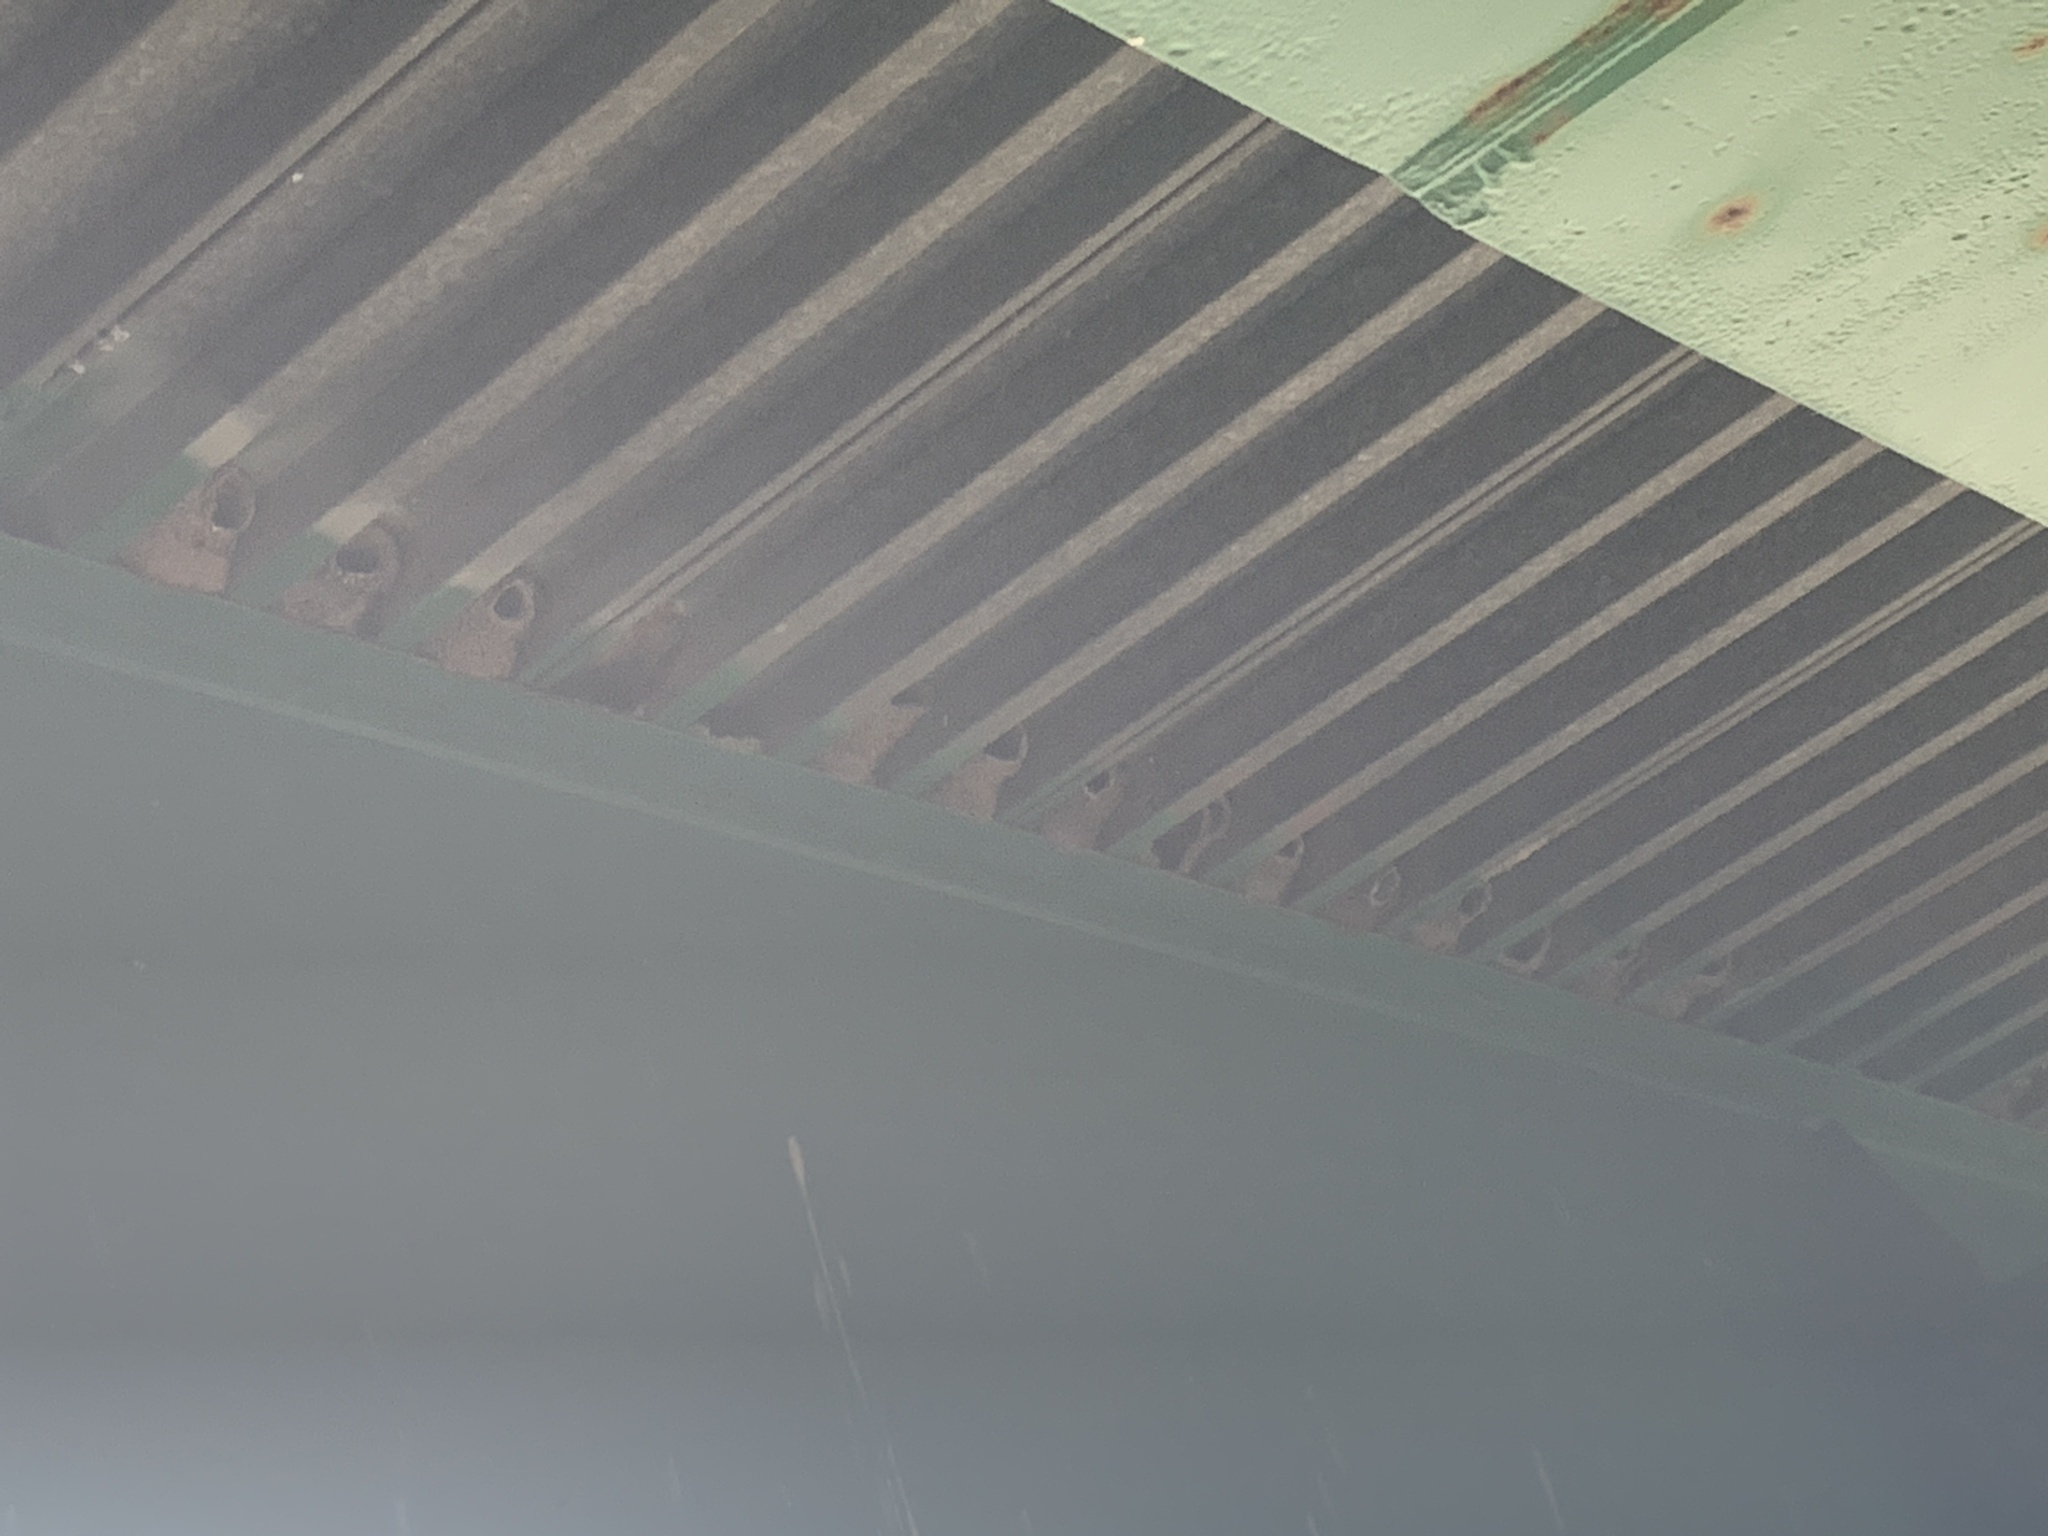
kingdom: Animalia
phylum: Chordata
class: Aves
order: Passeriformes
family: Hirundinidae
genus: Petrochelidon
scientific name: Petrochelidon pyrrhonota
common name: American cliff swallow
